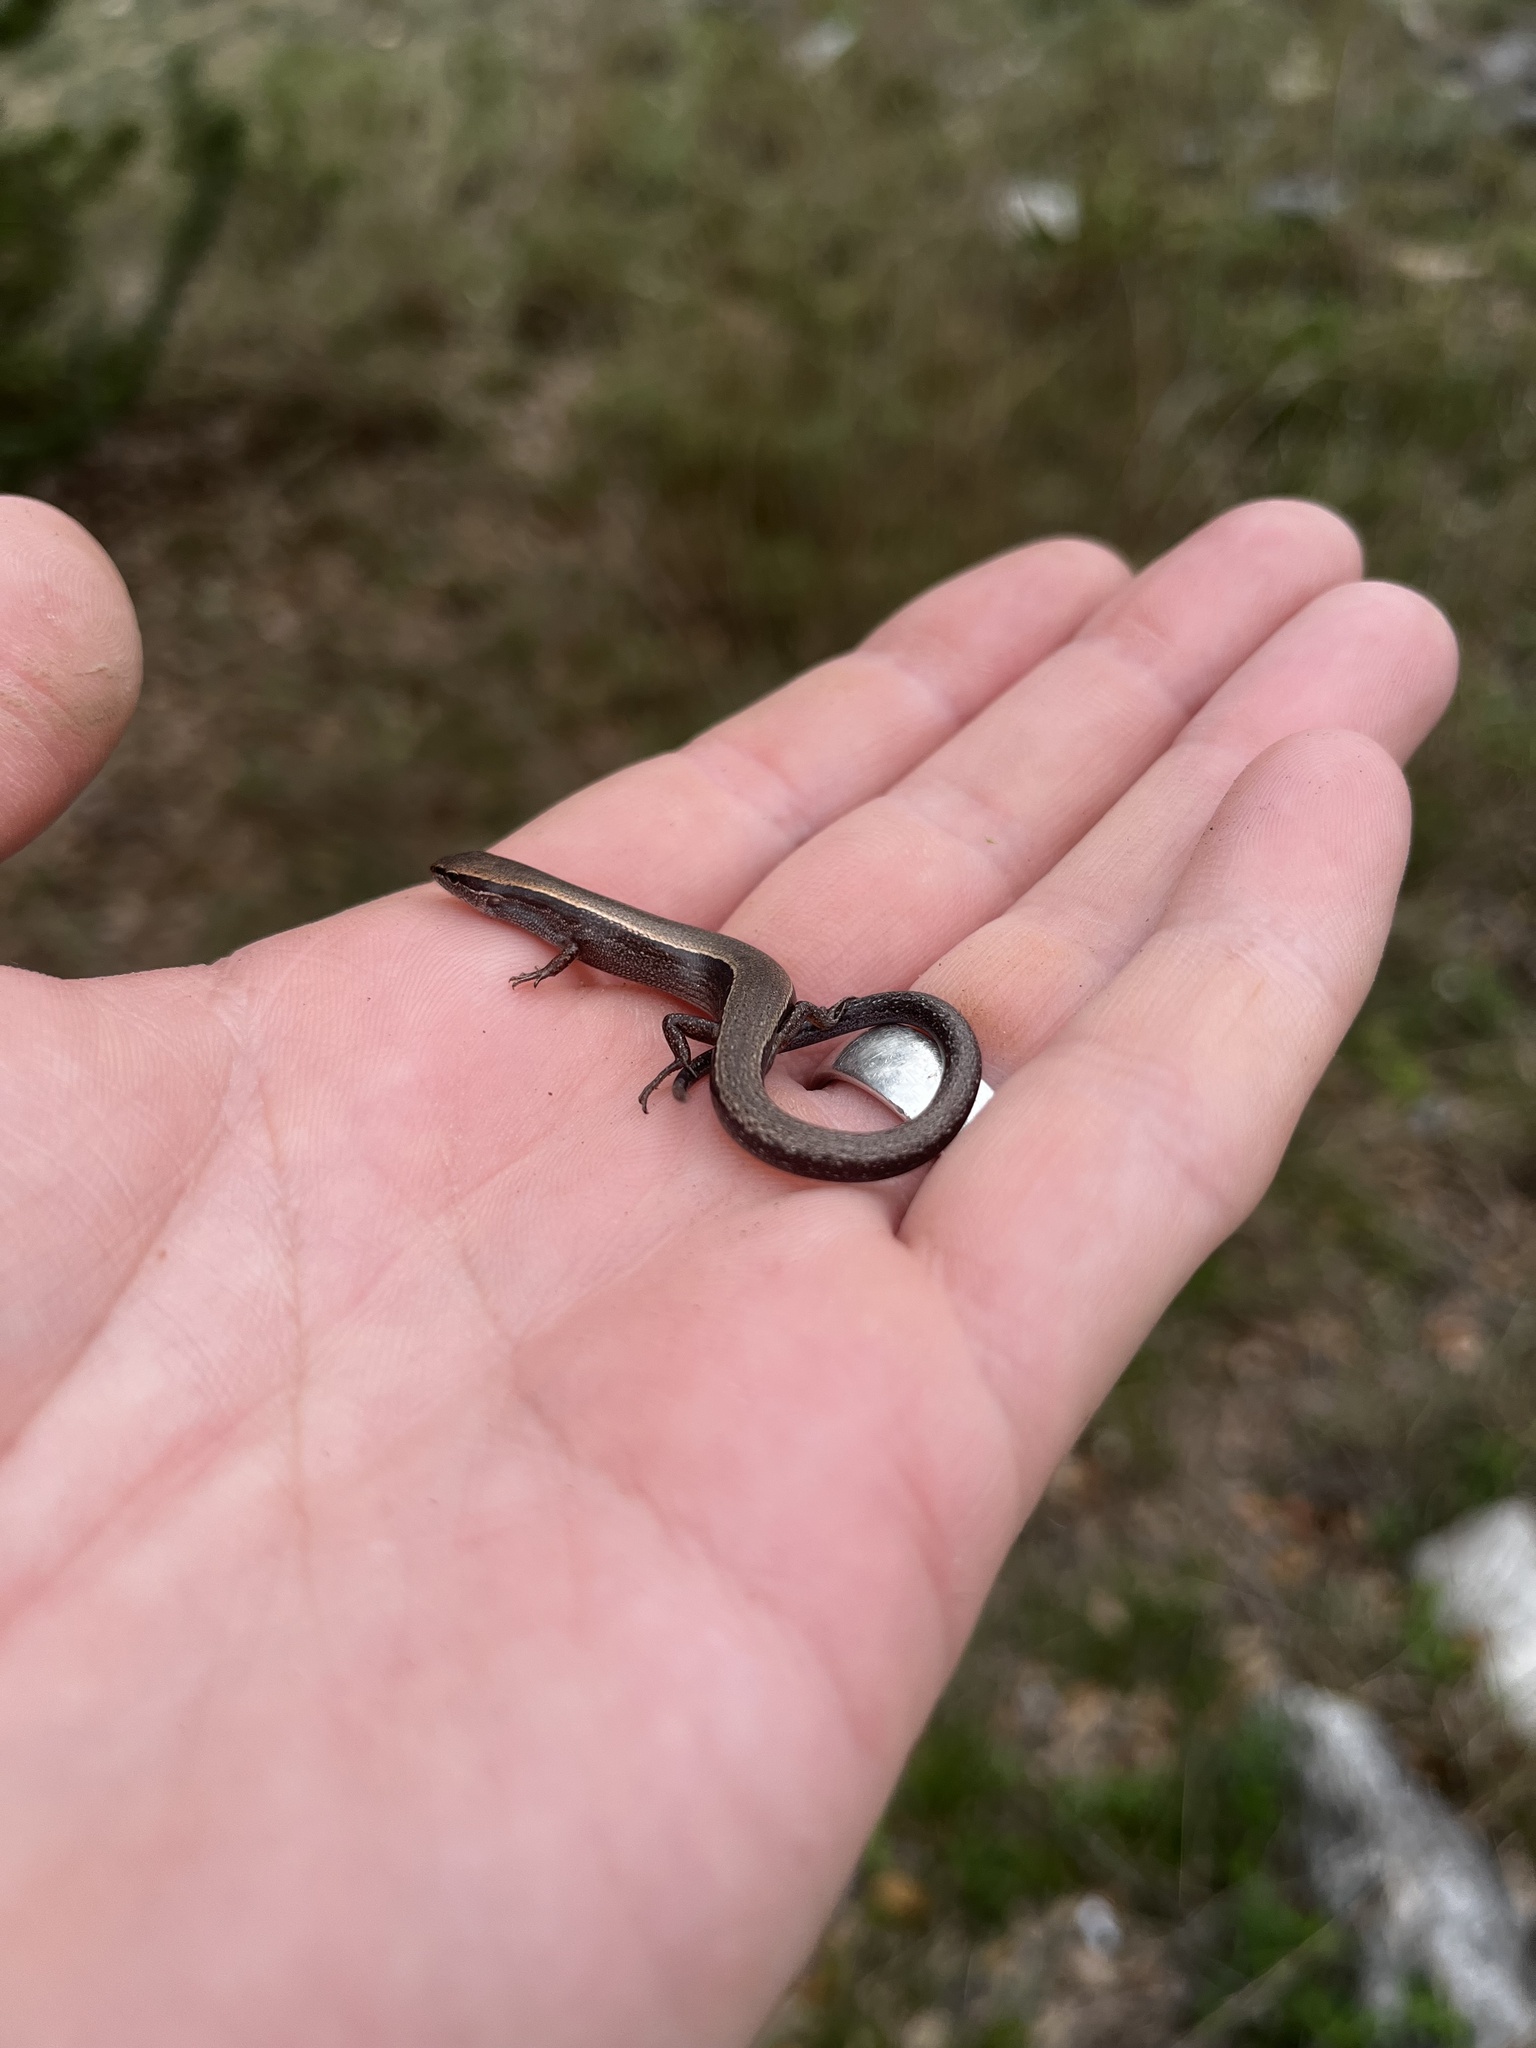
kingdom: Animalia
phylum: Chordata
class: Squamata
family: Scincidae
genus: Scincella
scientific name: Scincella lateralis
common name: Ground skink
